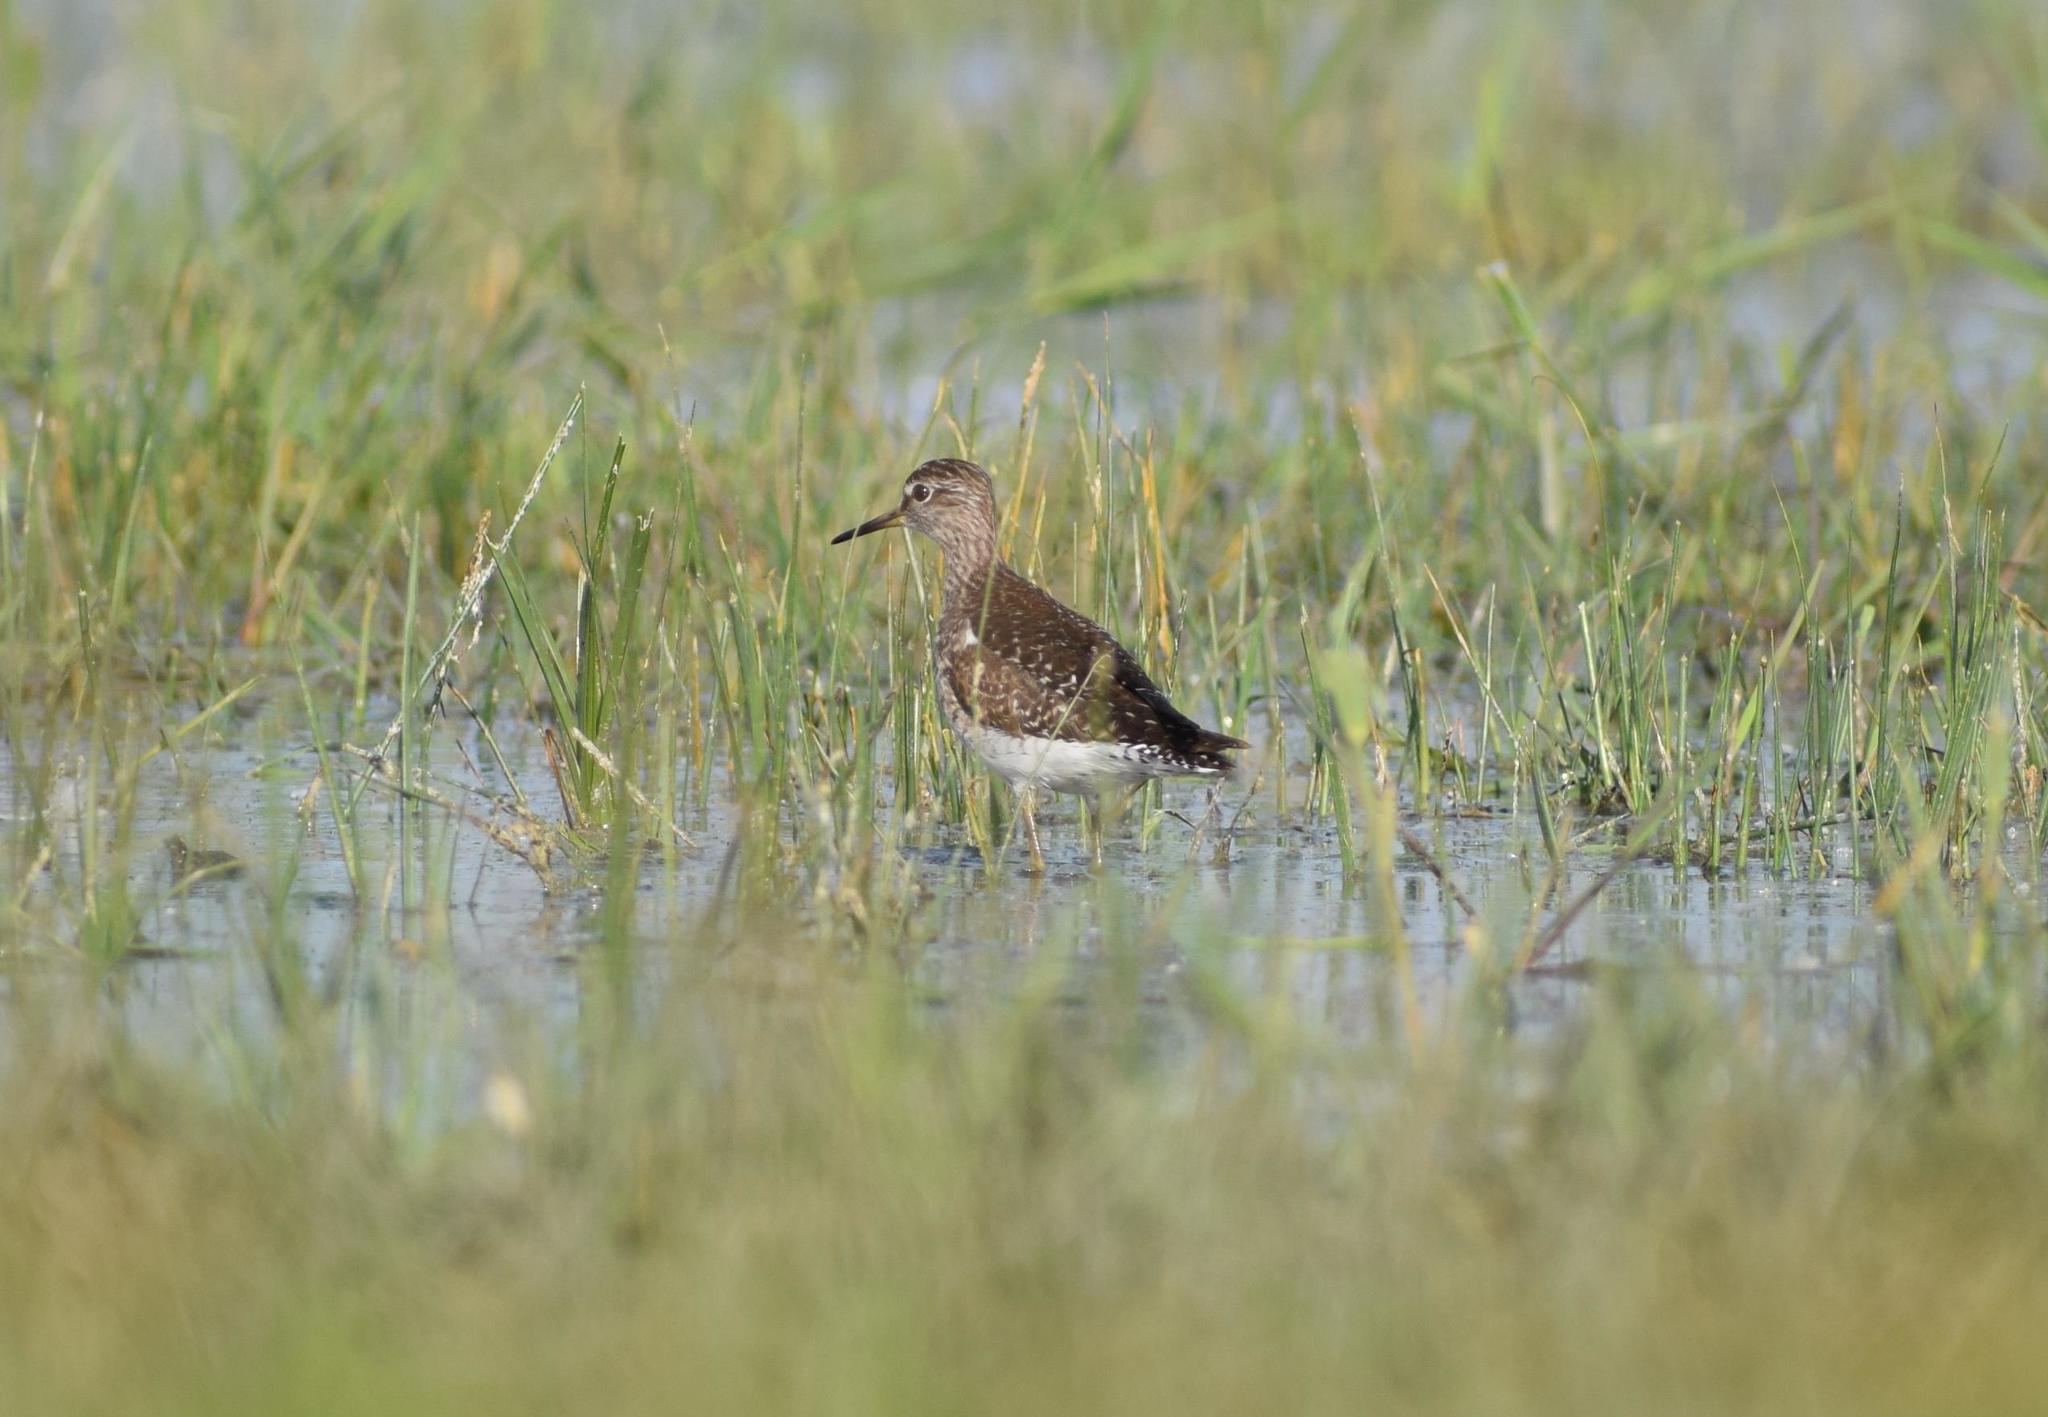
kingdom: Animalia
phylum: Chordata
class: Aves
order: Charadriiformes
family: Scolopacidae
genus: Tringa
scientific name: Tringa glareola
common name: Wood sandpiper
